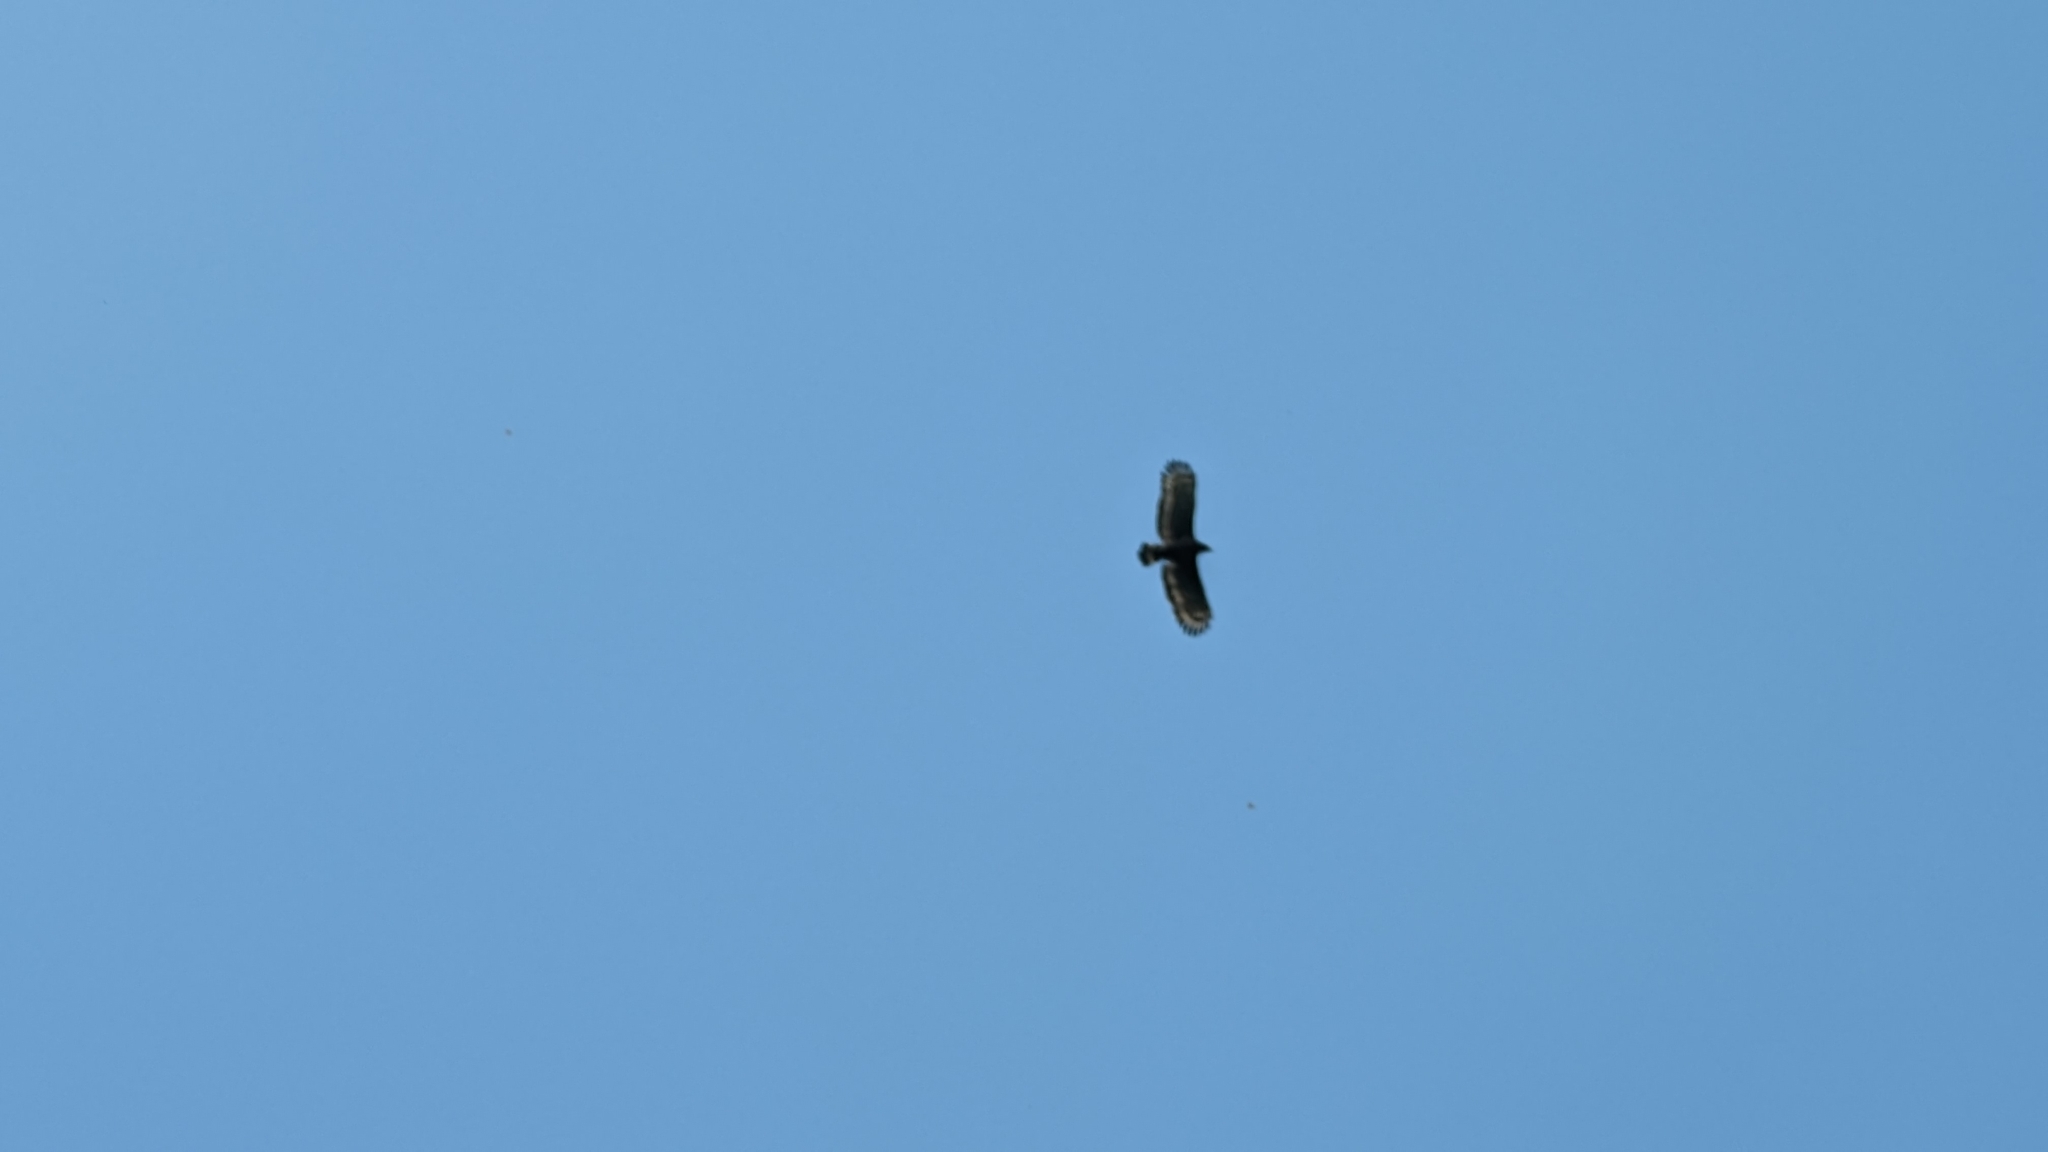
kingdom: Animalia
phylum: Chordata
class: Aves
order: Accipitriformes
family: Accipitridae
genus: Spilornis
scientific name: Spilornis cheela
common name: Crested serpent eagle
